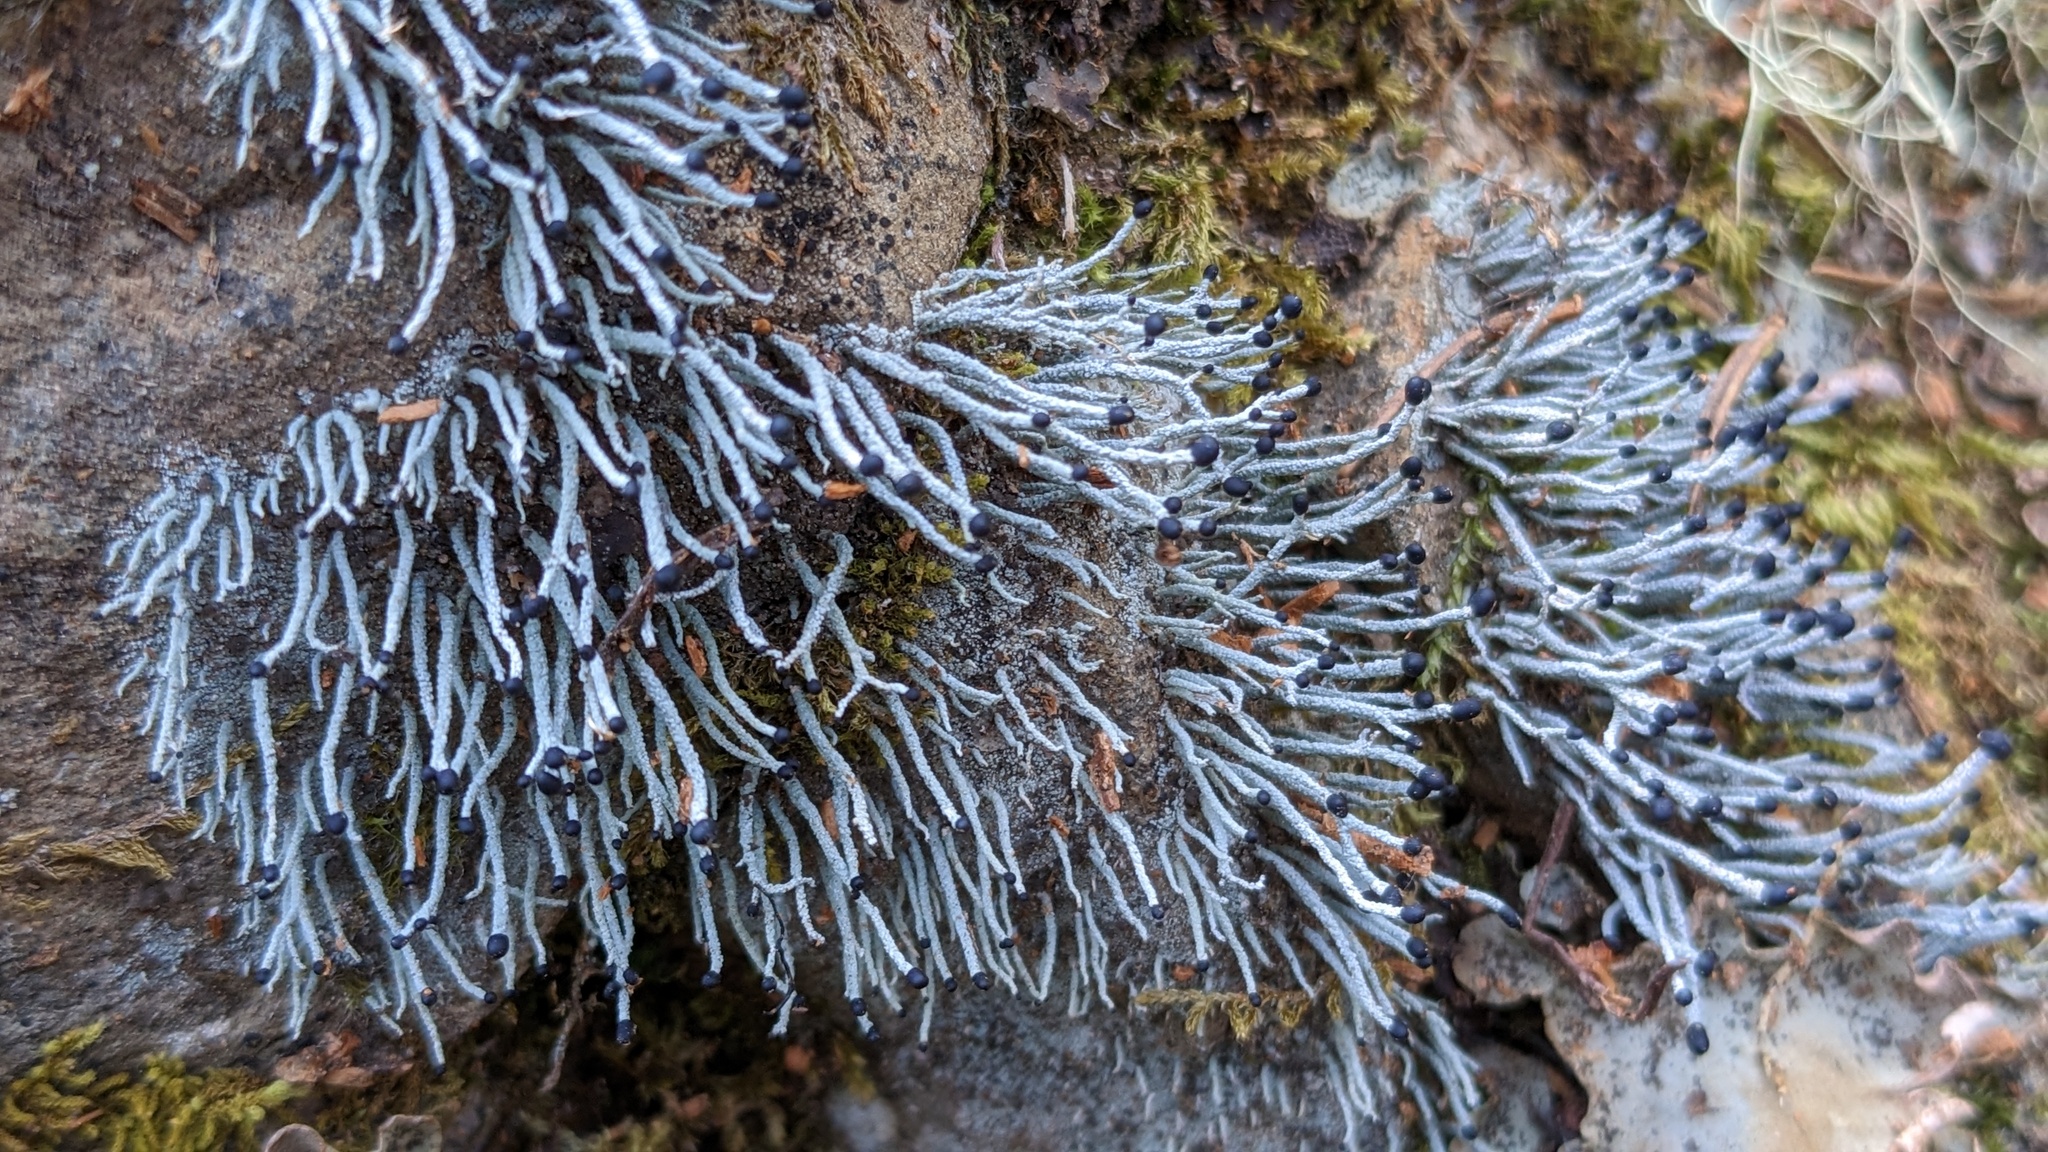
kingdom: Fungi
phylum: Ascomycota
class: Lecanoromycetes
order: Lecanorales
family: Cladoniaceae
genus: Pilophorus
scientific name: Pilophorus acicularis
